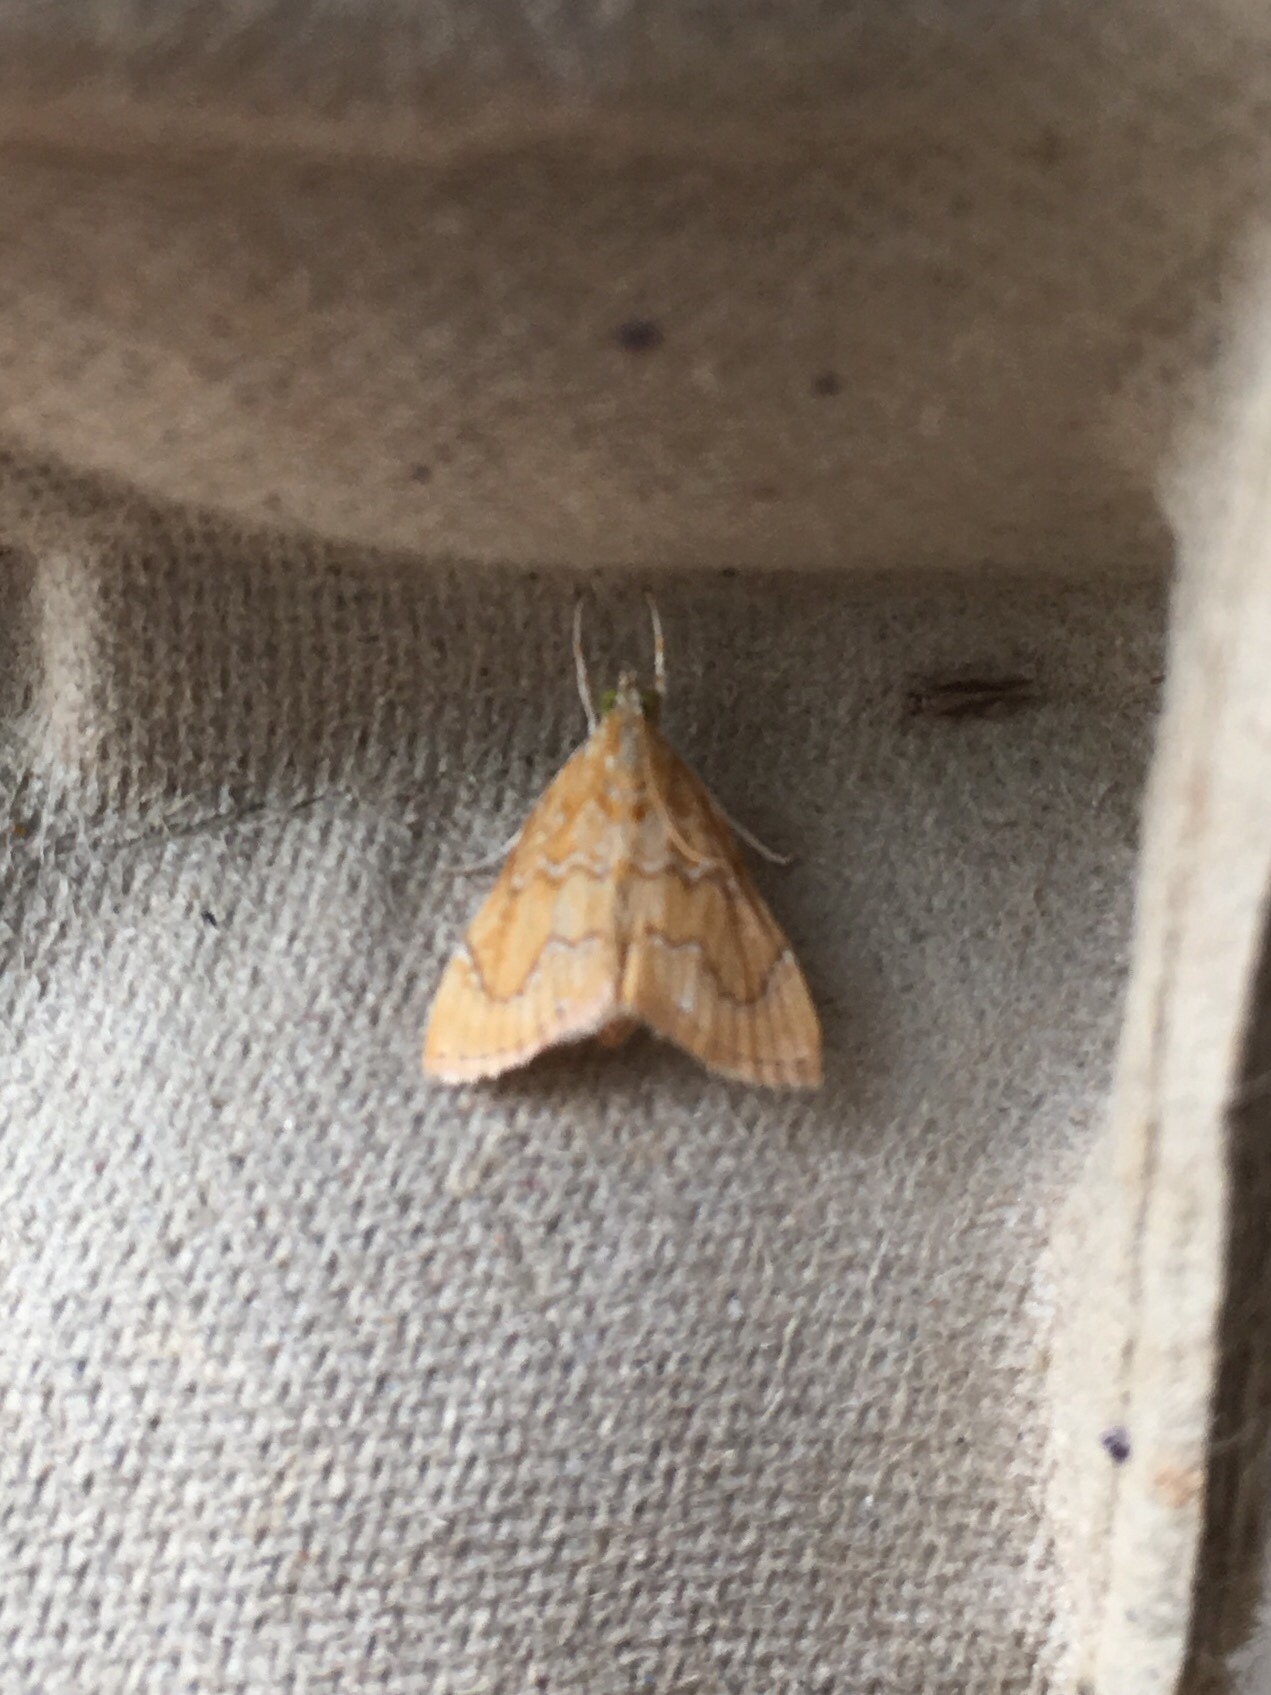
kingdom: Animalia
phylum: Arthropoda
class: Insecta
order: Lepidoptera
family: Crambidae
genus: Glaphyria
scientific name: Glaphyria sesquistrialis
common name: White-roped glaphyria
